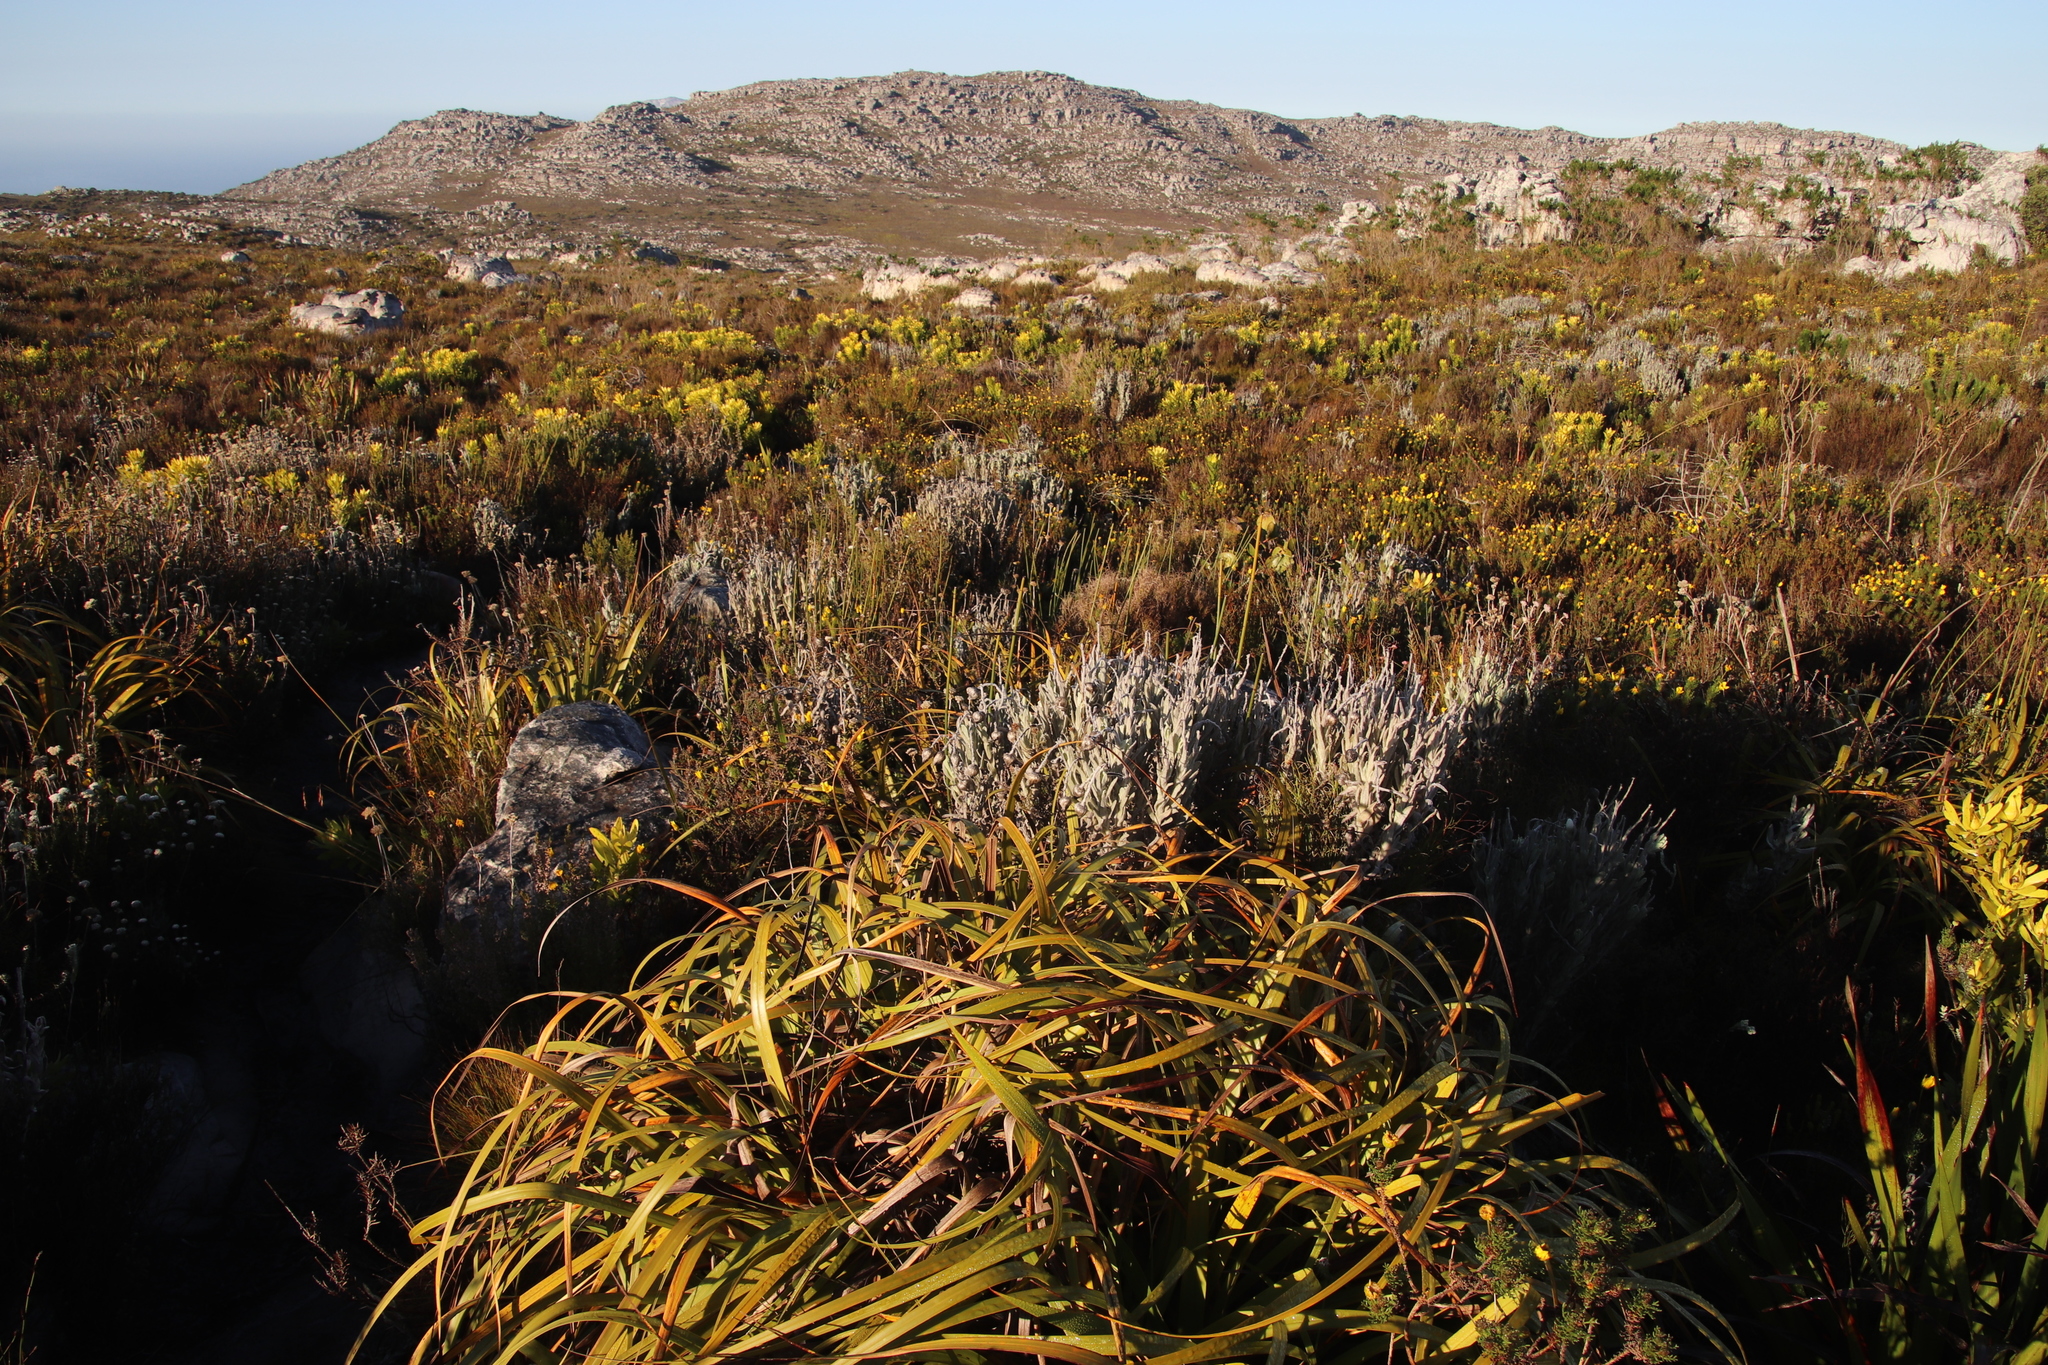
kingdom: Plantae
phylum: Tracheophyta
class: Magnoliopsida
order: Asterales
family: Asteraceae
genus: Syncarpha
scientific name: Syncarpha vestita
